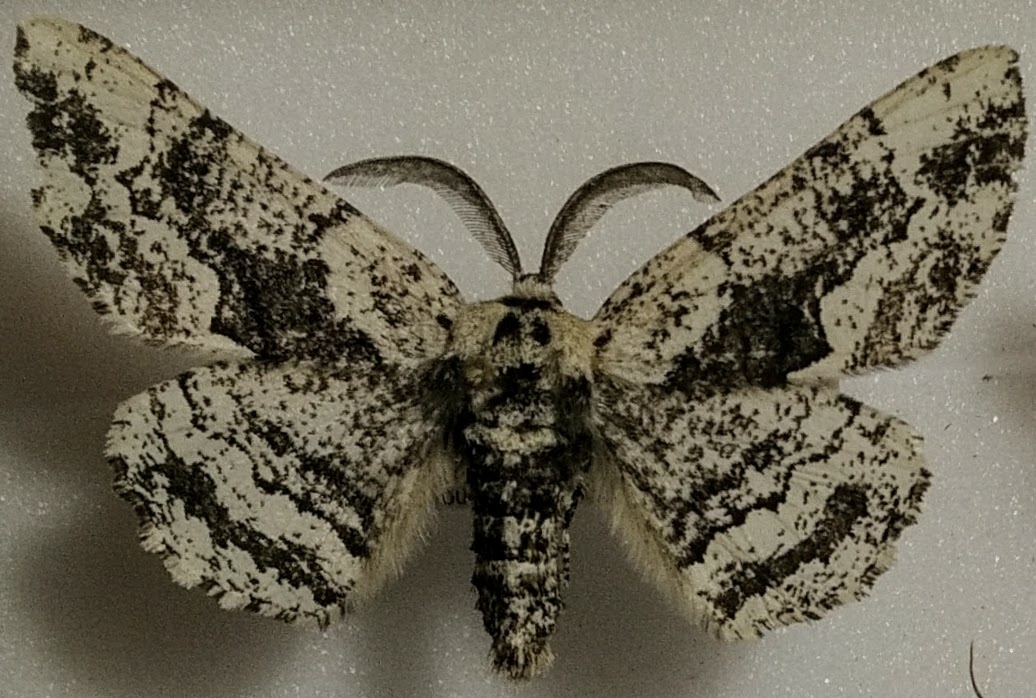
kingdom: Animalia
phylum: Arthropoda
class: Insecta
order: Lepidoptera
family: Geometridae
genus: Phaeoura
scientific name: Phaeoura quernaria
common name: Oak beauty
